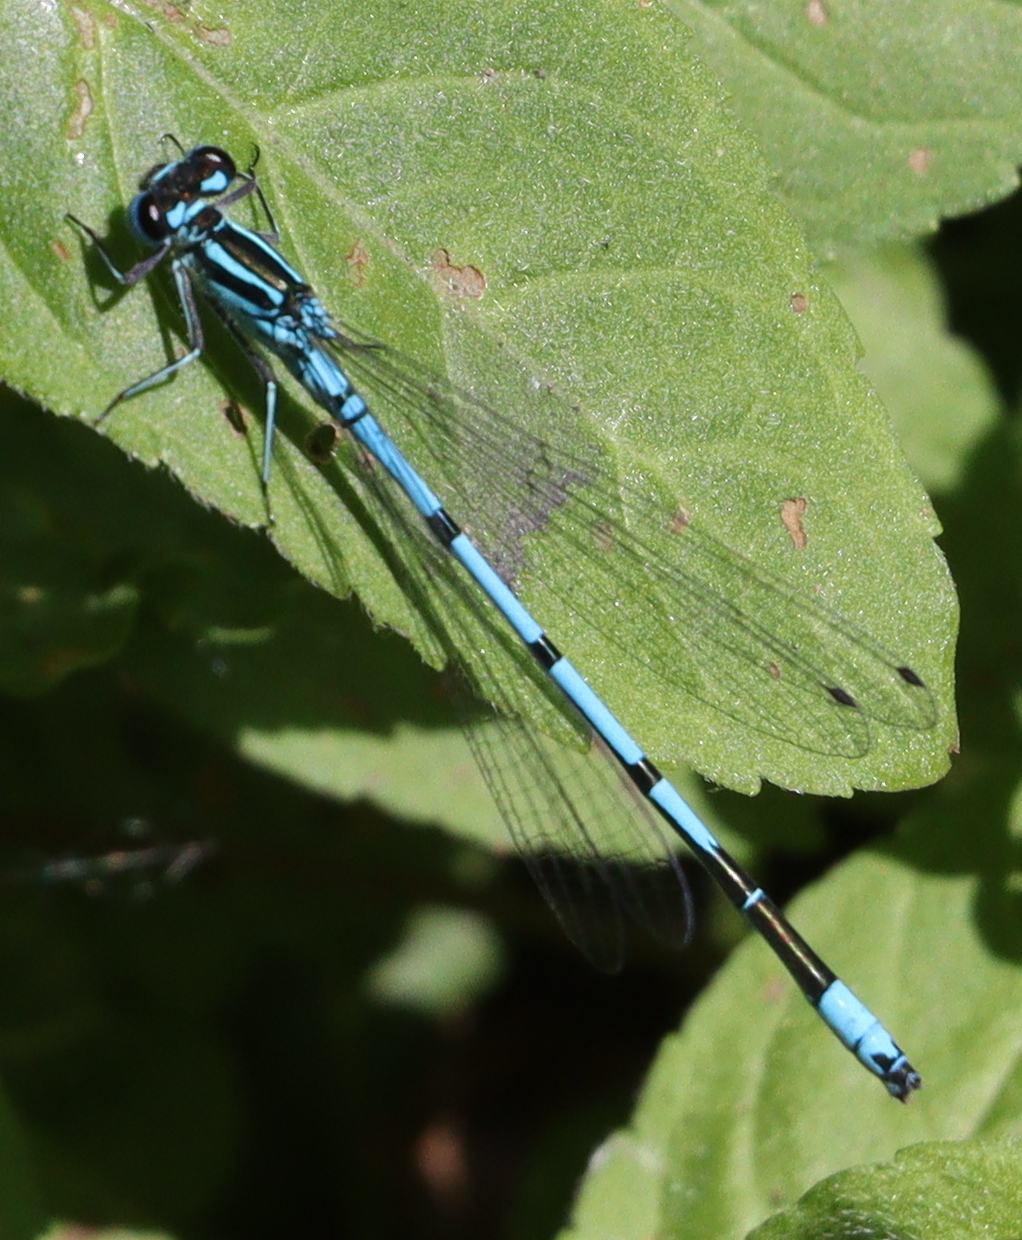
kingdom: Animalia
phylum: Arthropoda
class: Insecta
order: Odonata
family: Coenagrionidae
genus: Coenagrion
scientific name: Coenagrion puella
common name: Azure damselfly
